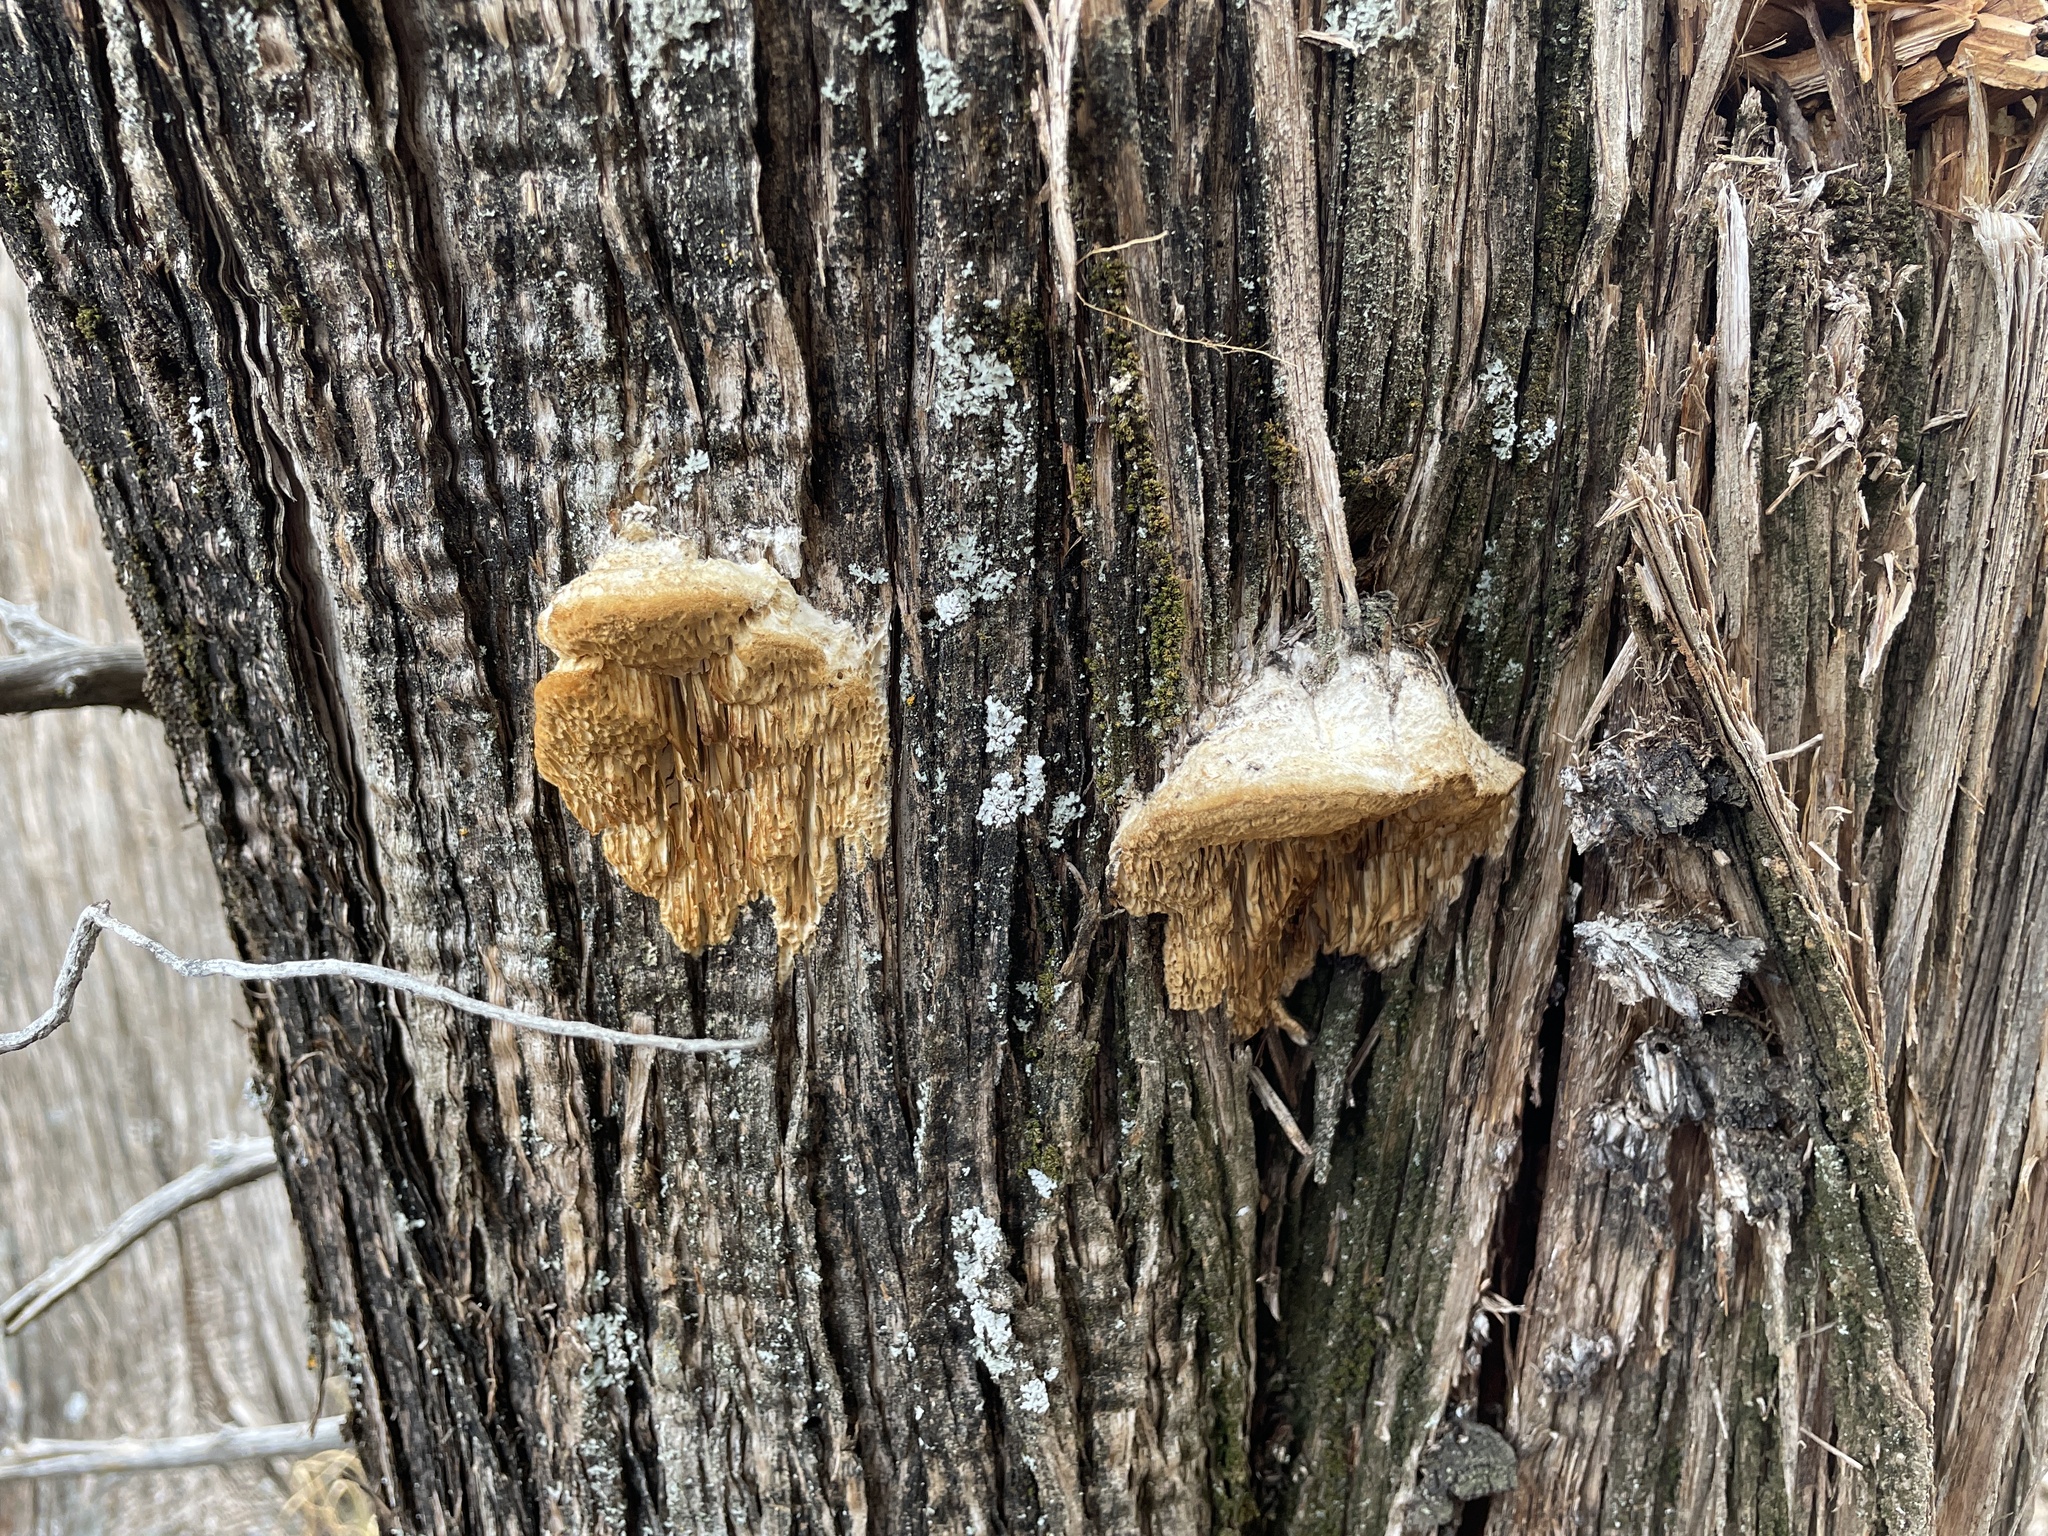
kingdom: Fungi
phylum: Basidiomycota
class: Agaricomycetes
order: Polyporales
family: Fomitopsidaceae
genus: Fomitopsis
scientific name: Fomitopsis
